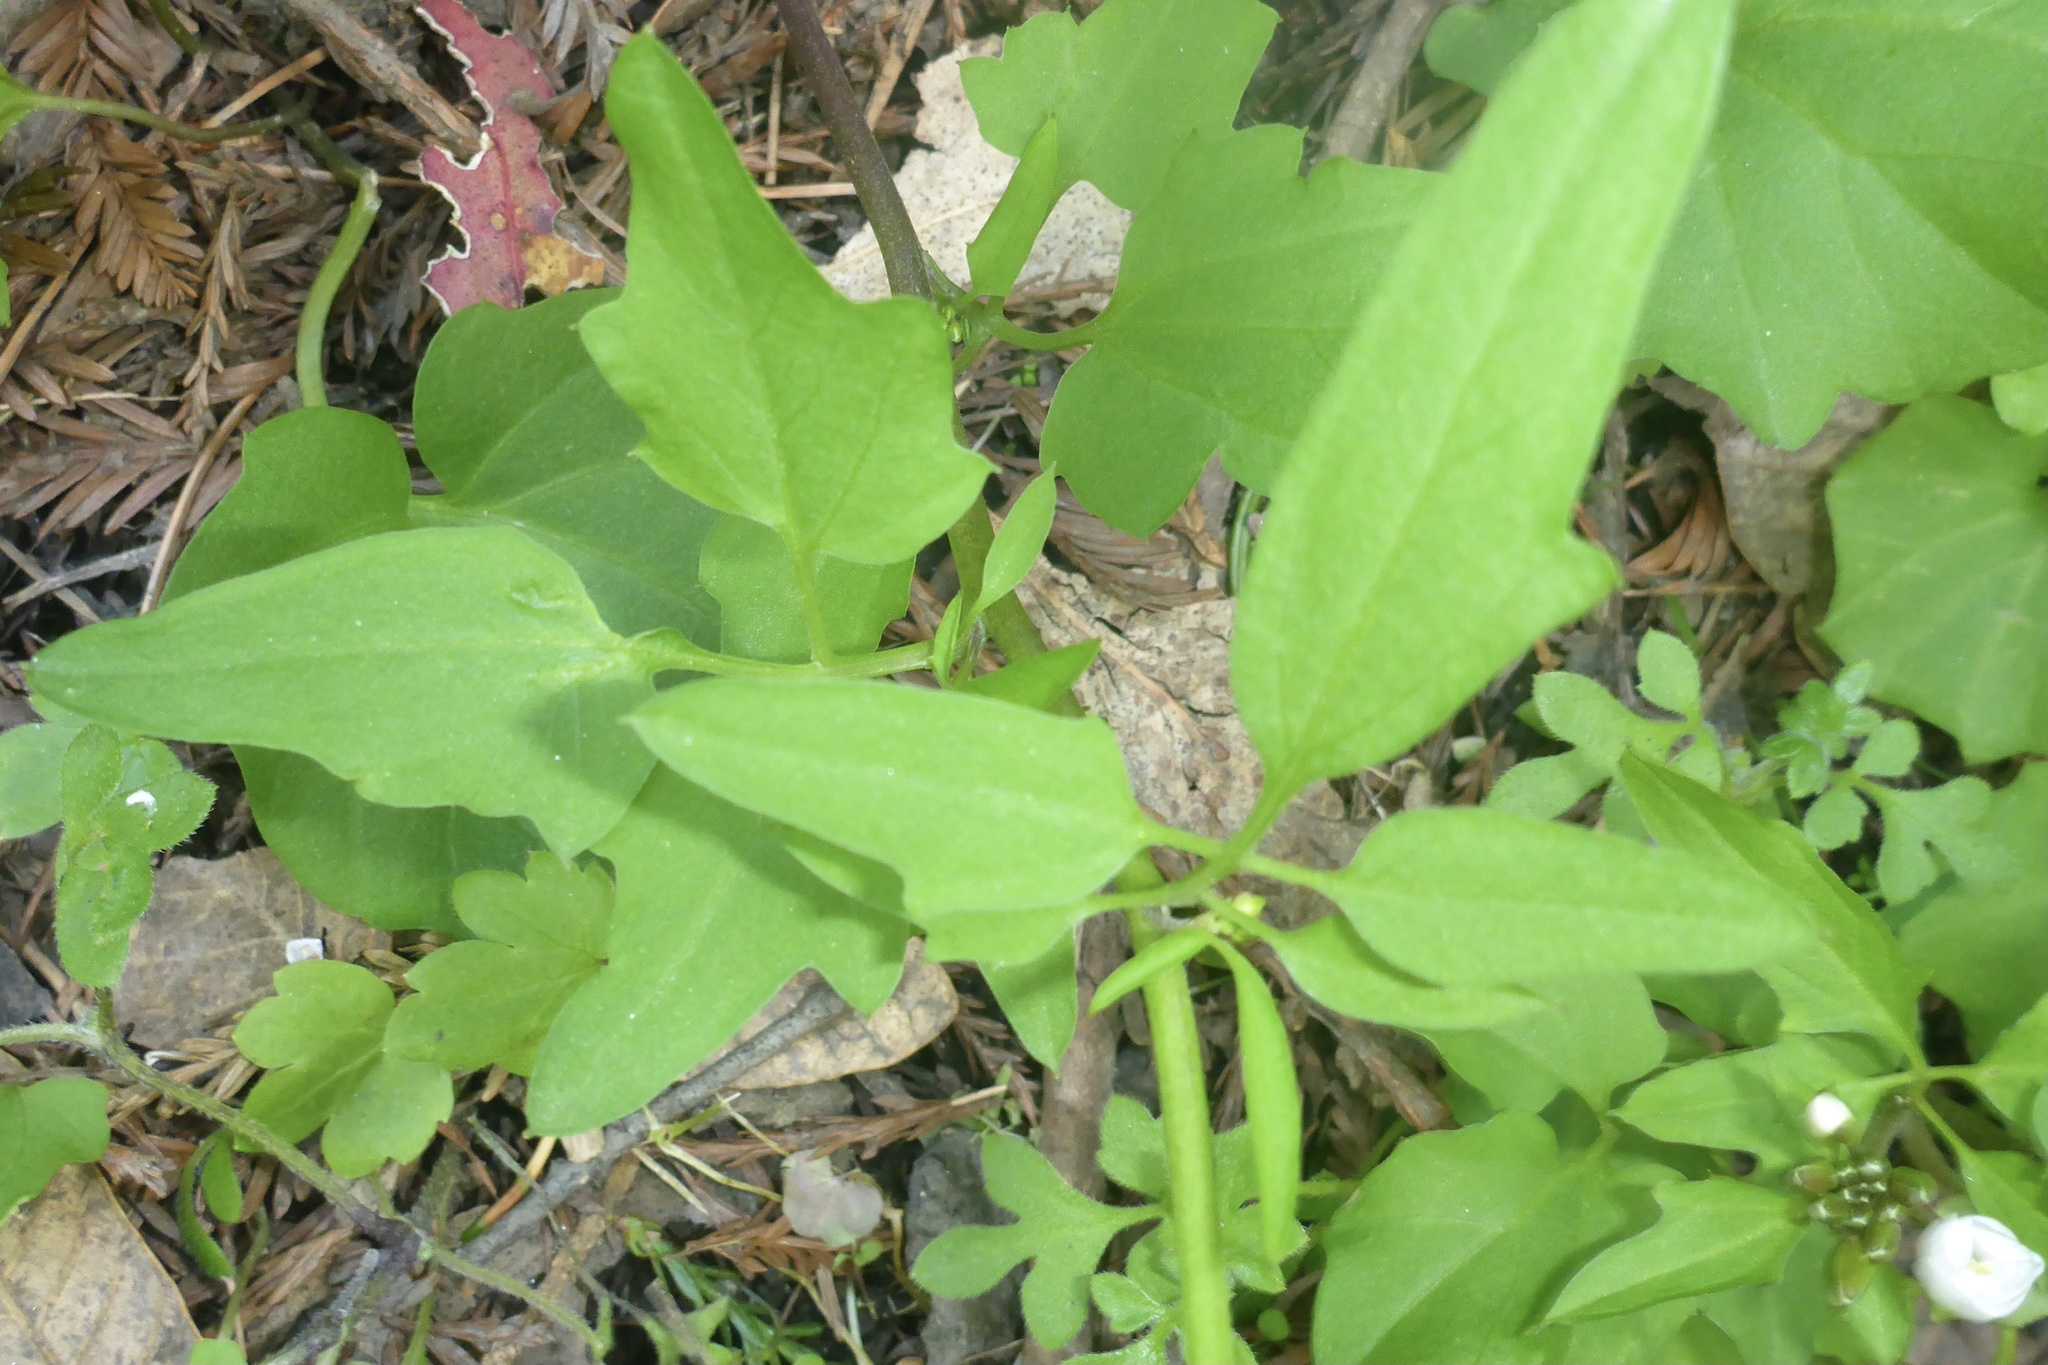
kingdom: Plantae
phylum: Tracheophyta
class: Magnoliopsida
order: Brassicales
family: Brassicaceae
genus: Cardamine
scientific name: Cardamine californica
